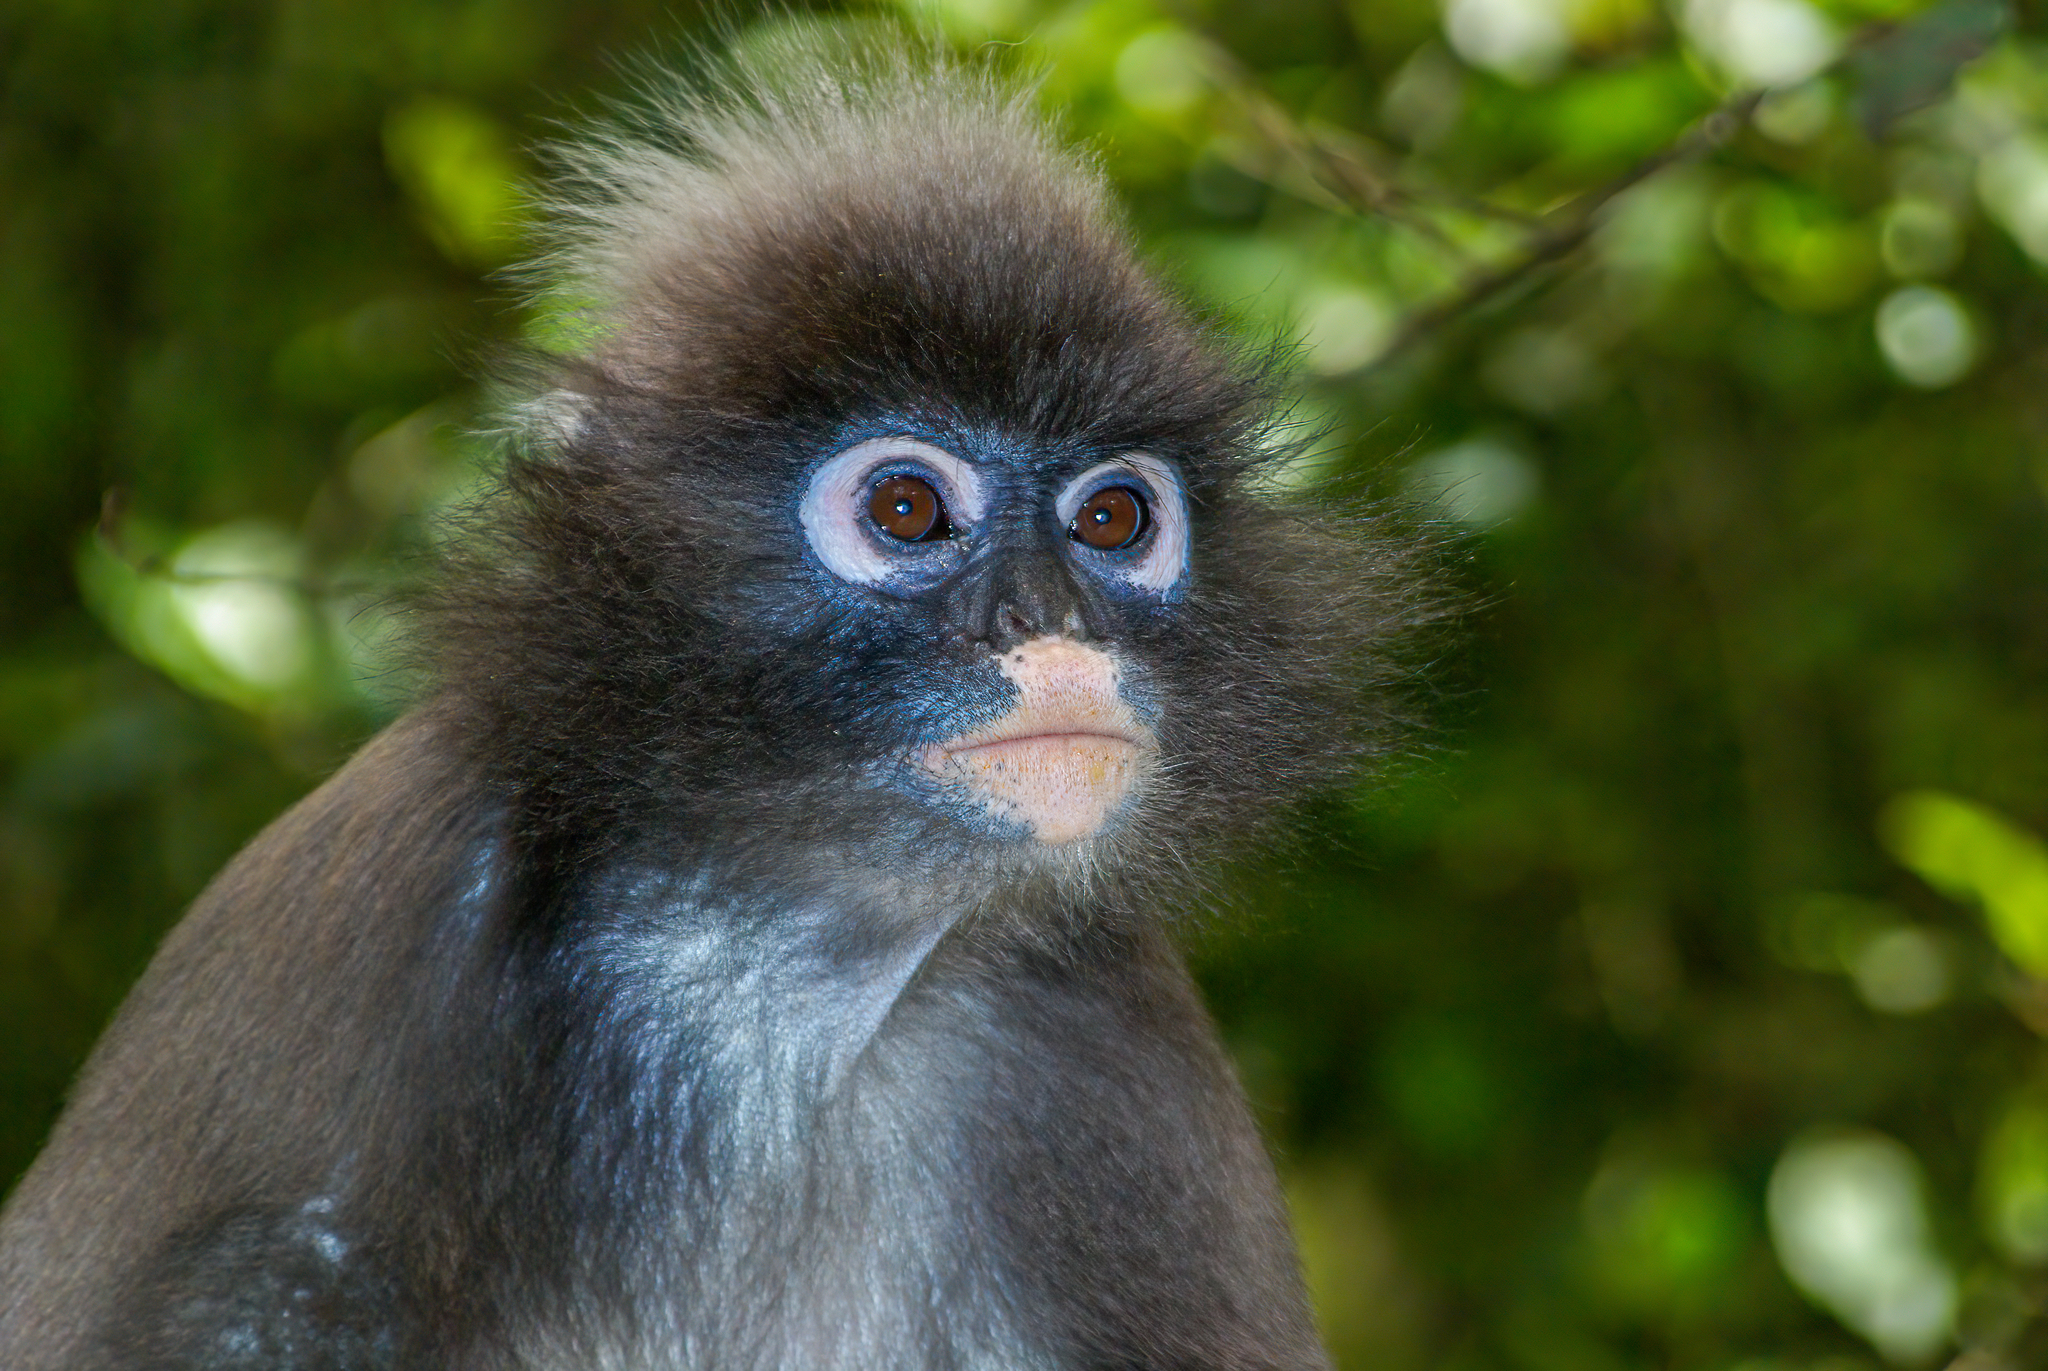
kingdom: Animalia
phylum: Chordata
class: Mammalia
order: Primates
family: Cercopithecidae
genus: Trachypithecus
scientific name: Trachypithecus crepusculus
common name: Indochinese gray langur
